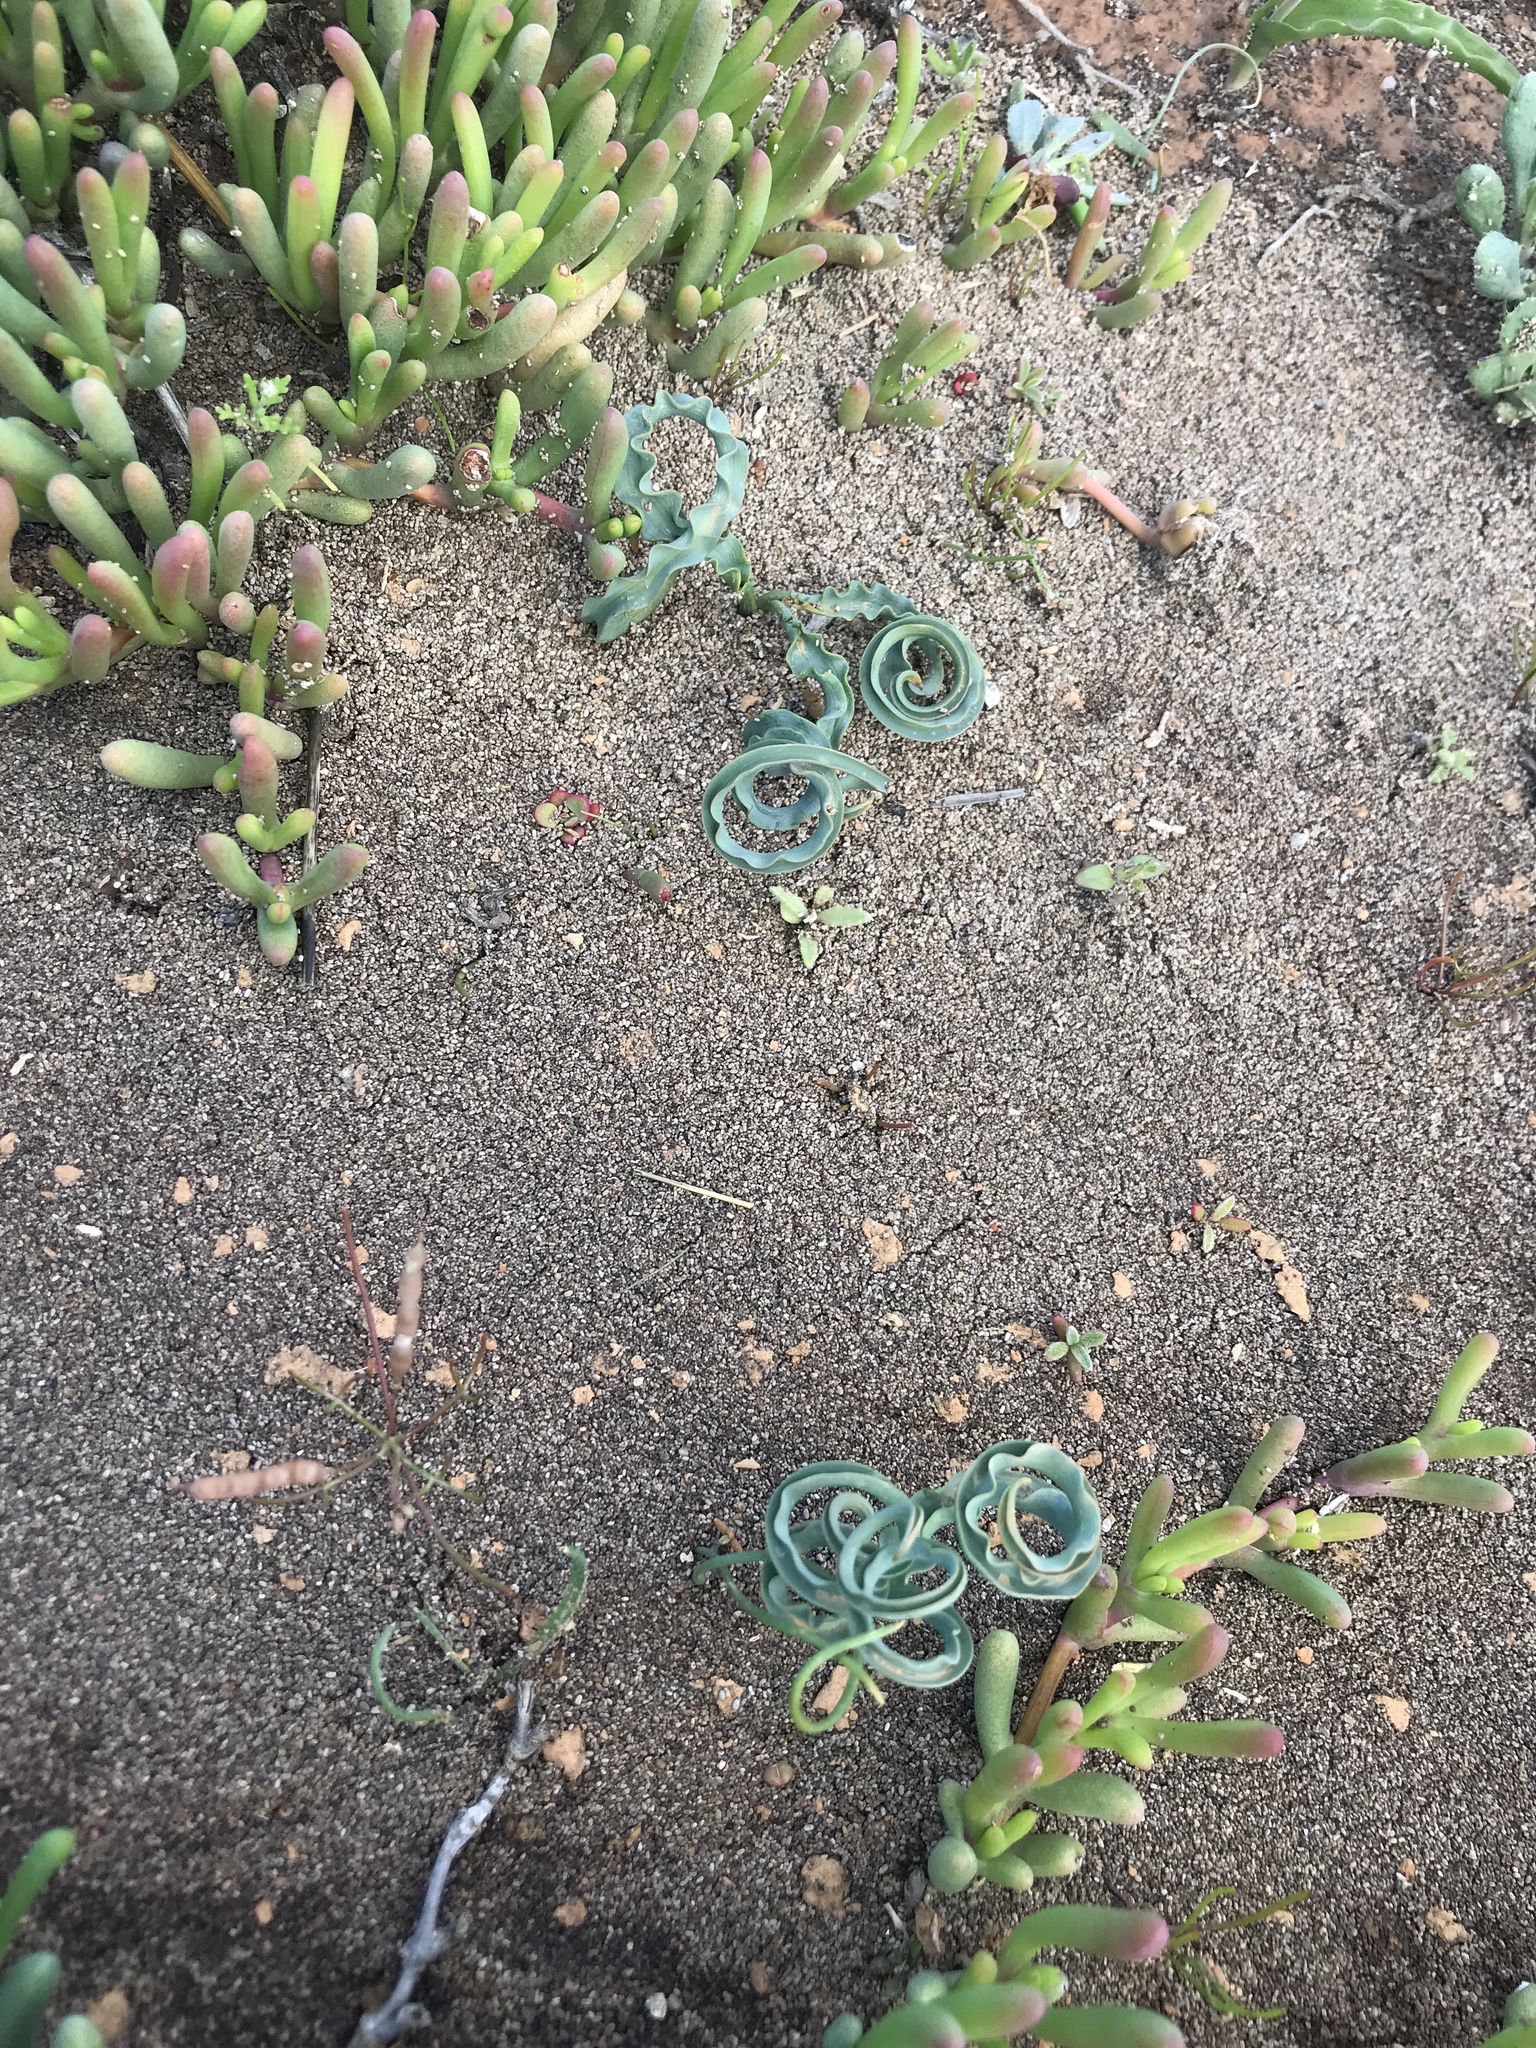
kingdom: Plantae
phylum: Tracheophyta
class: Liliopsida
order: Asparagales
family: Asparagaceae
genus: Dipcadi
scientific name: Dipcadi crispum
